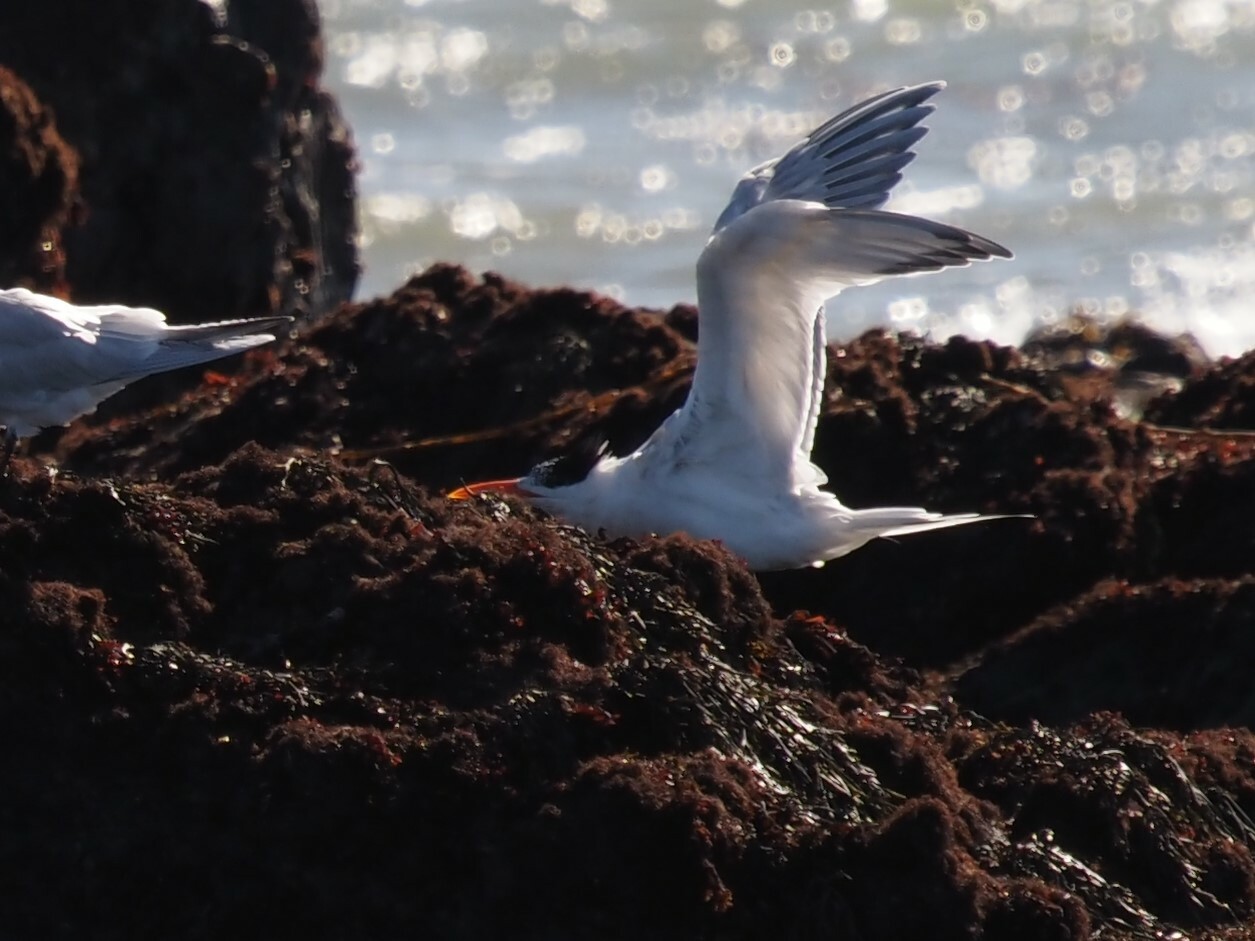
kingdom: Animalia
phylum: Chordata
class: Aves
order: Charadriiformes
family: Laridae
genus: Thalasseus
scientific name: Thalasseus maximus
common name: Royal tern
